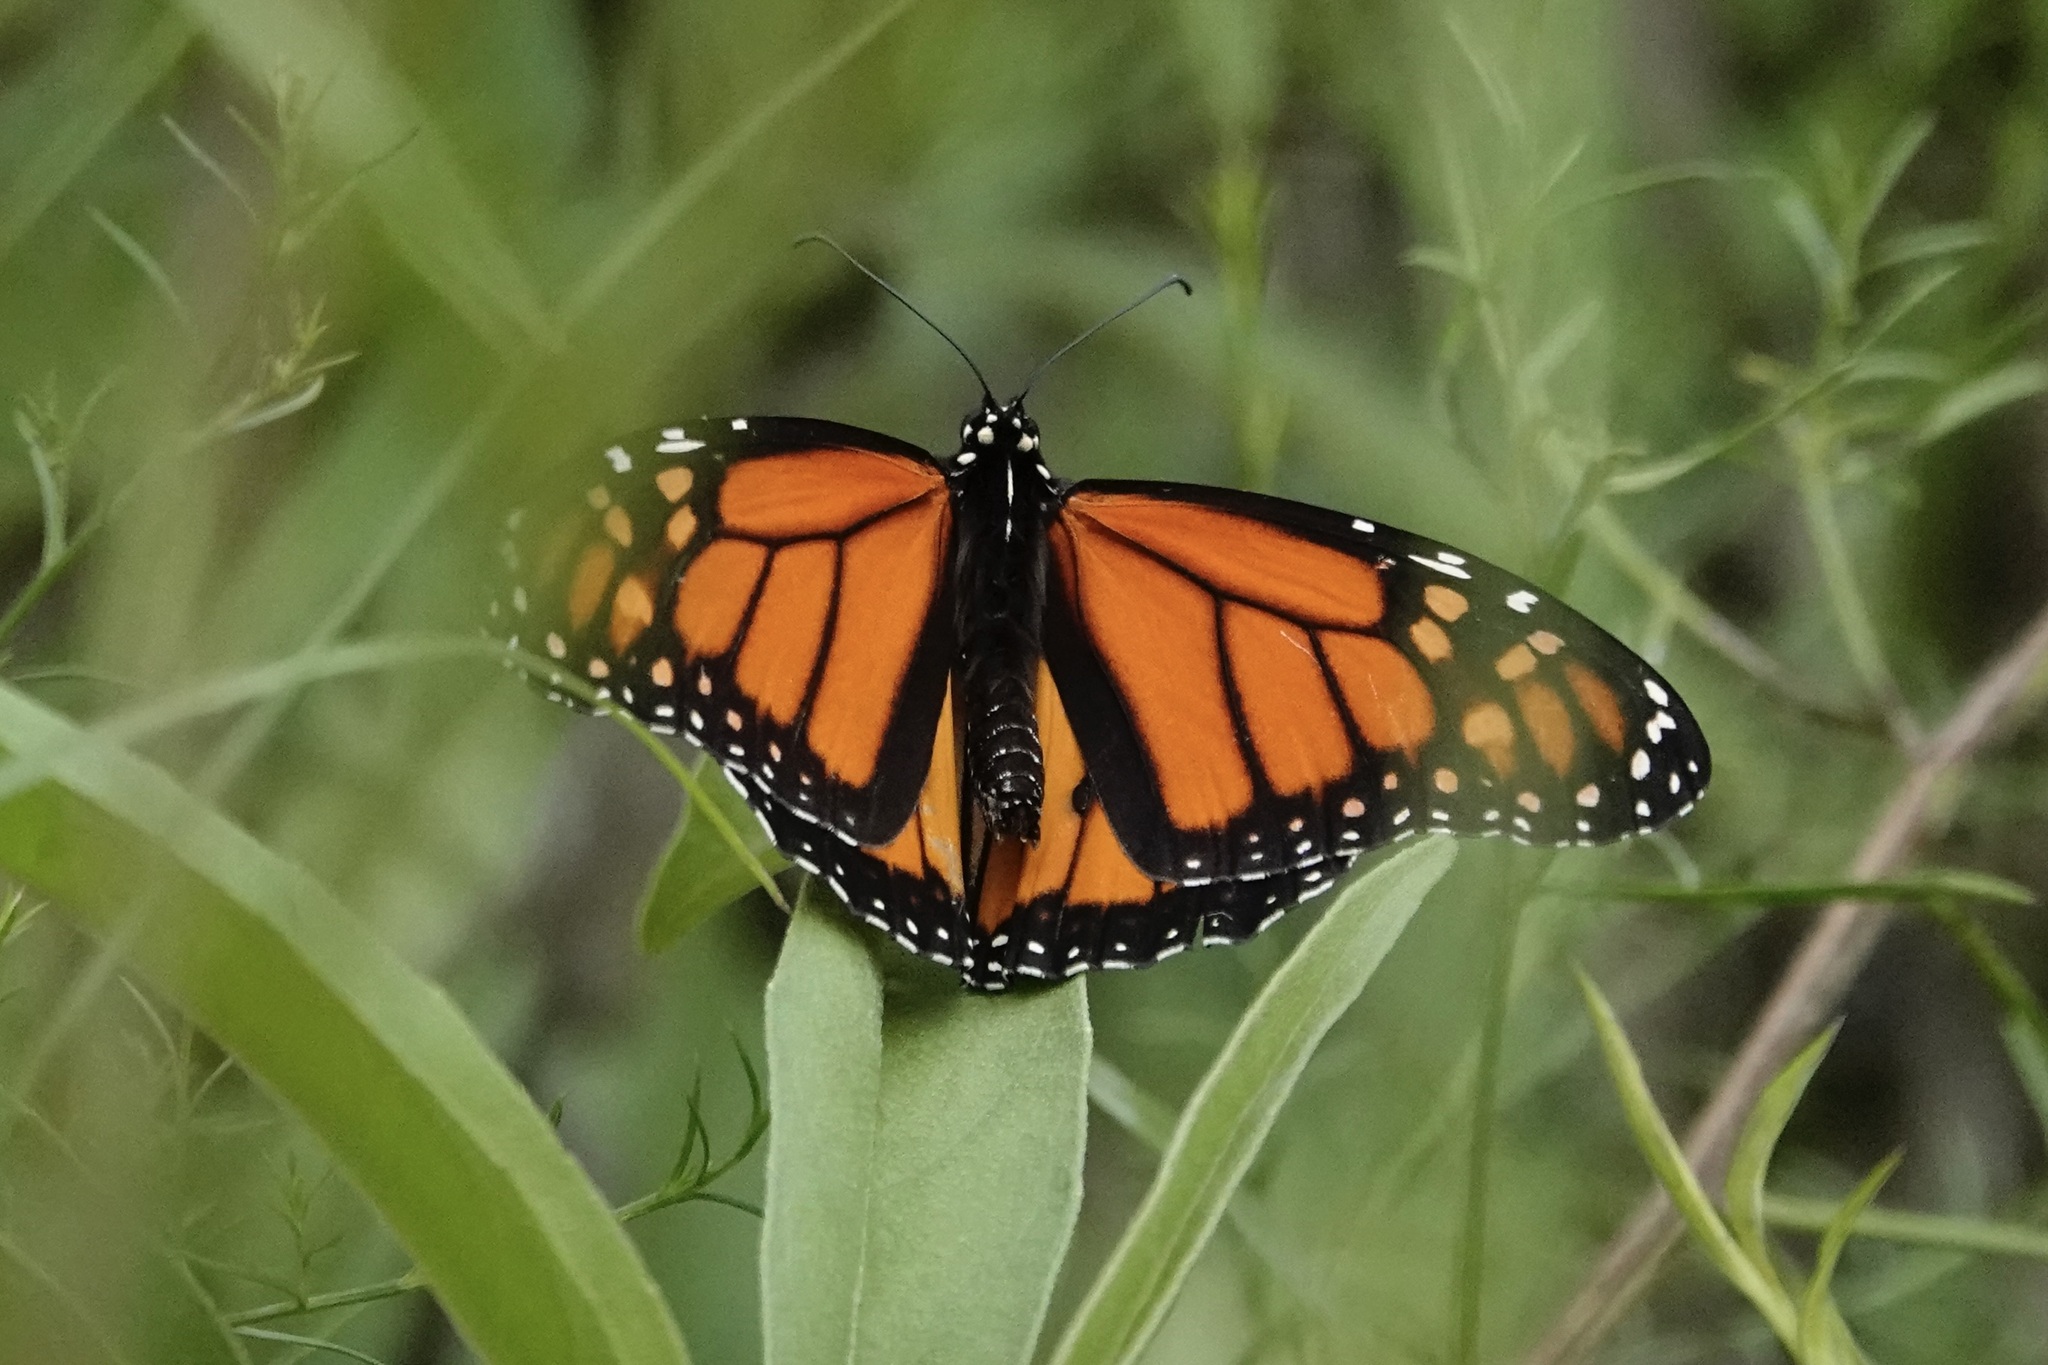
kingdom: Animalia
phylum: Arthropoda
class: Insecta
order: Lepidoptera
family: Nymphalidae
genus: Danaus
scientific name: Danaus plexippus
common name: Monarch
